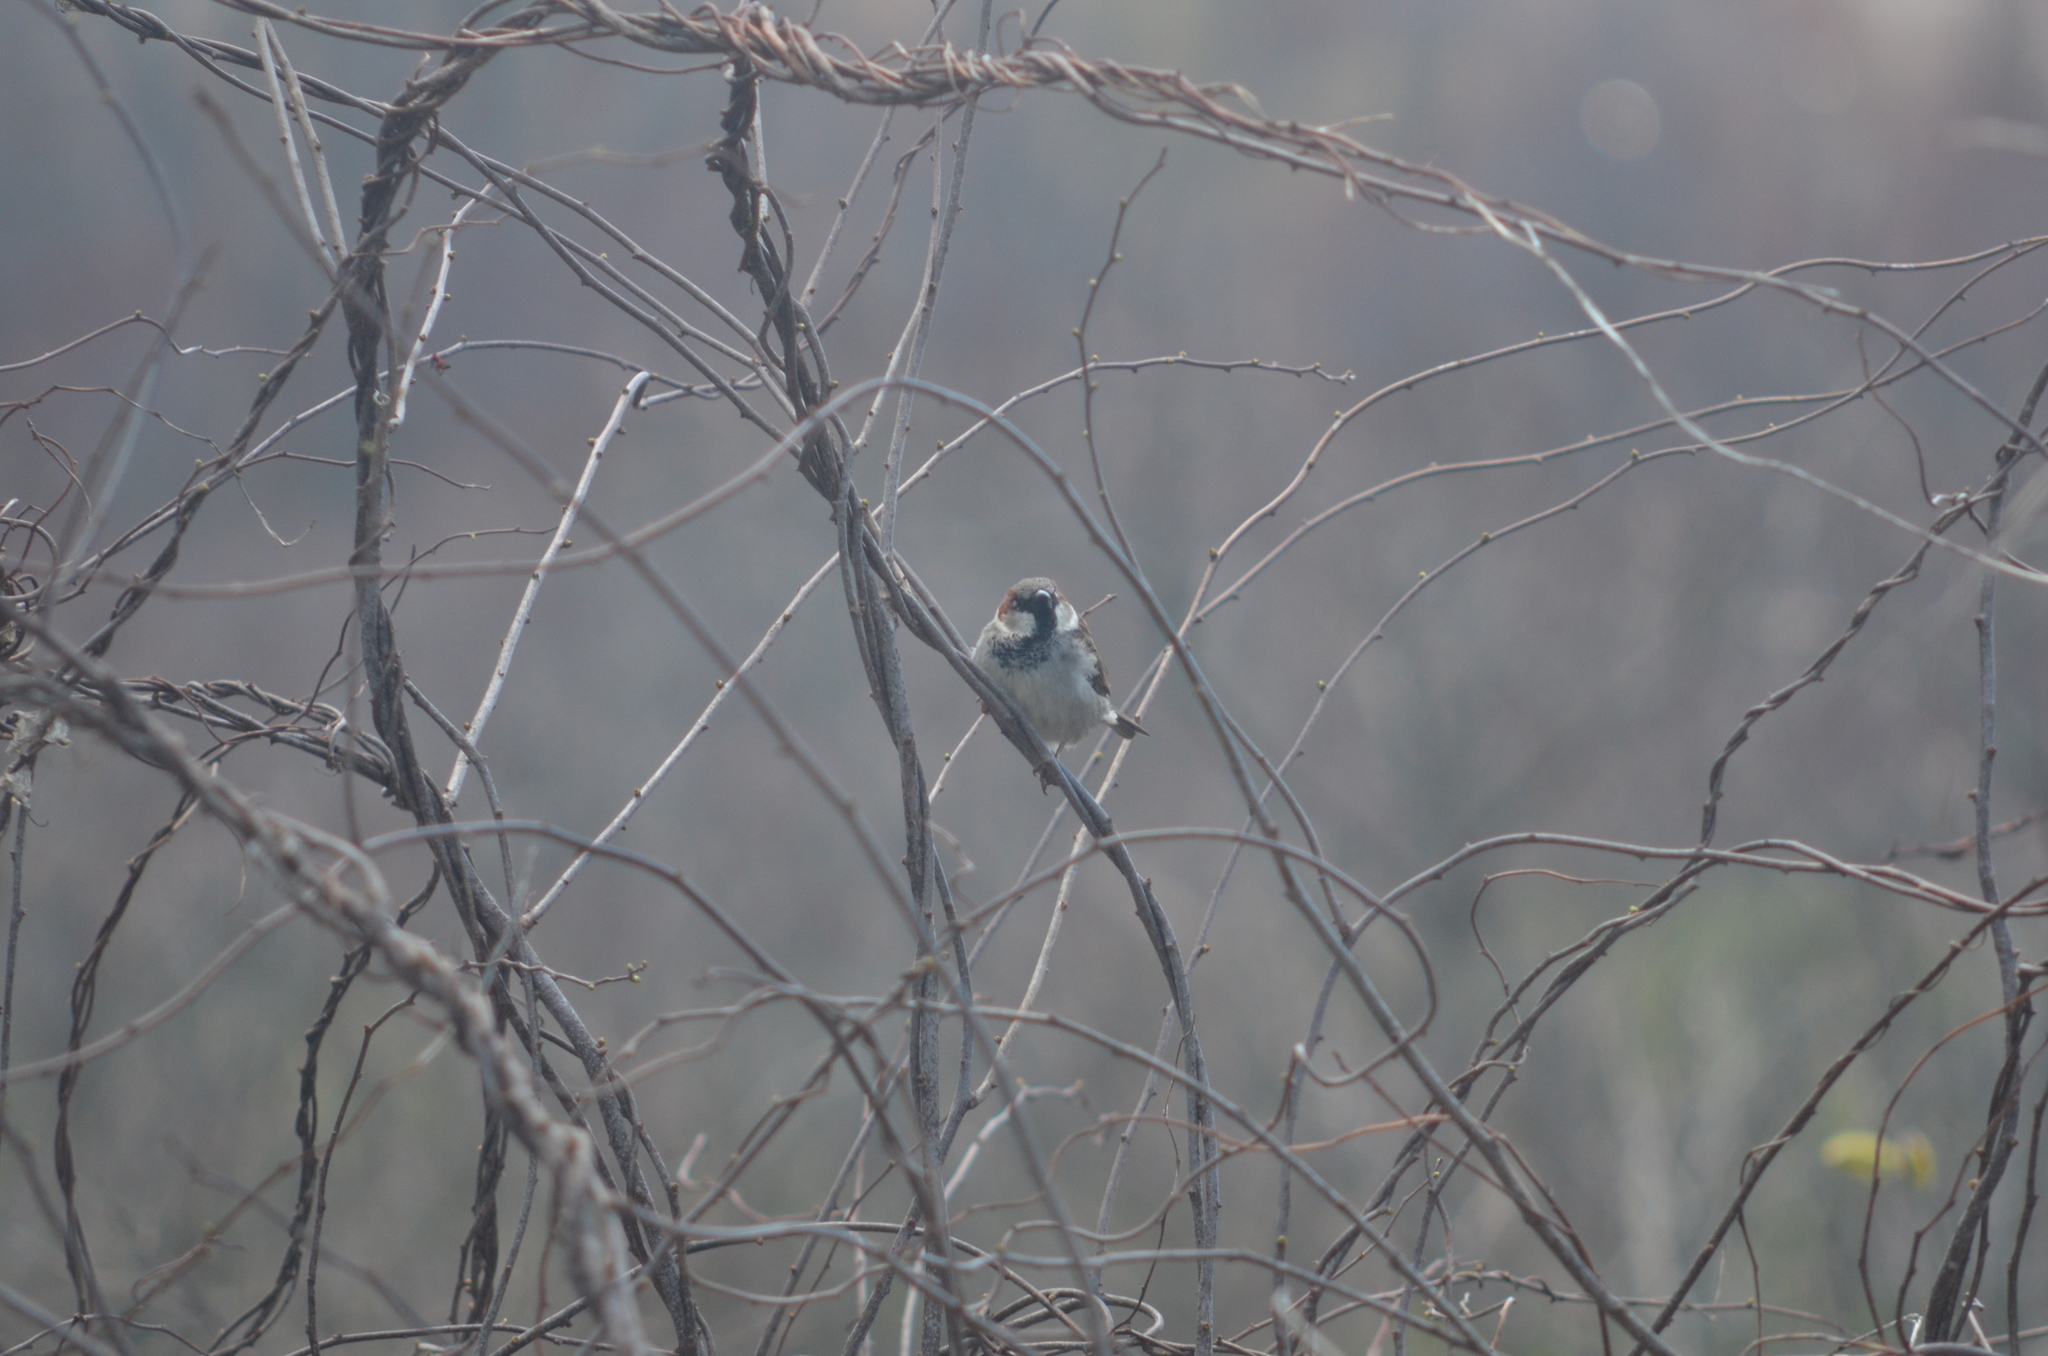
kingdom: Animalia
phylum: Chordata
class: Aves
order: Passeriformes
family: Passeridae
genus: Passer
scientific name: Passer domesticus
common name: House sparrow
